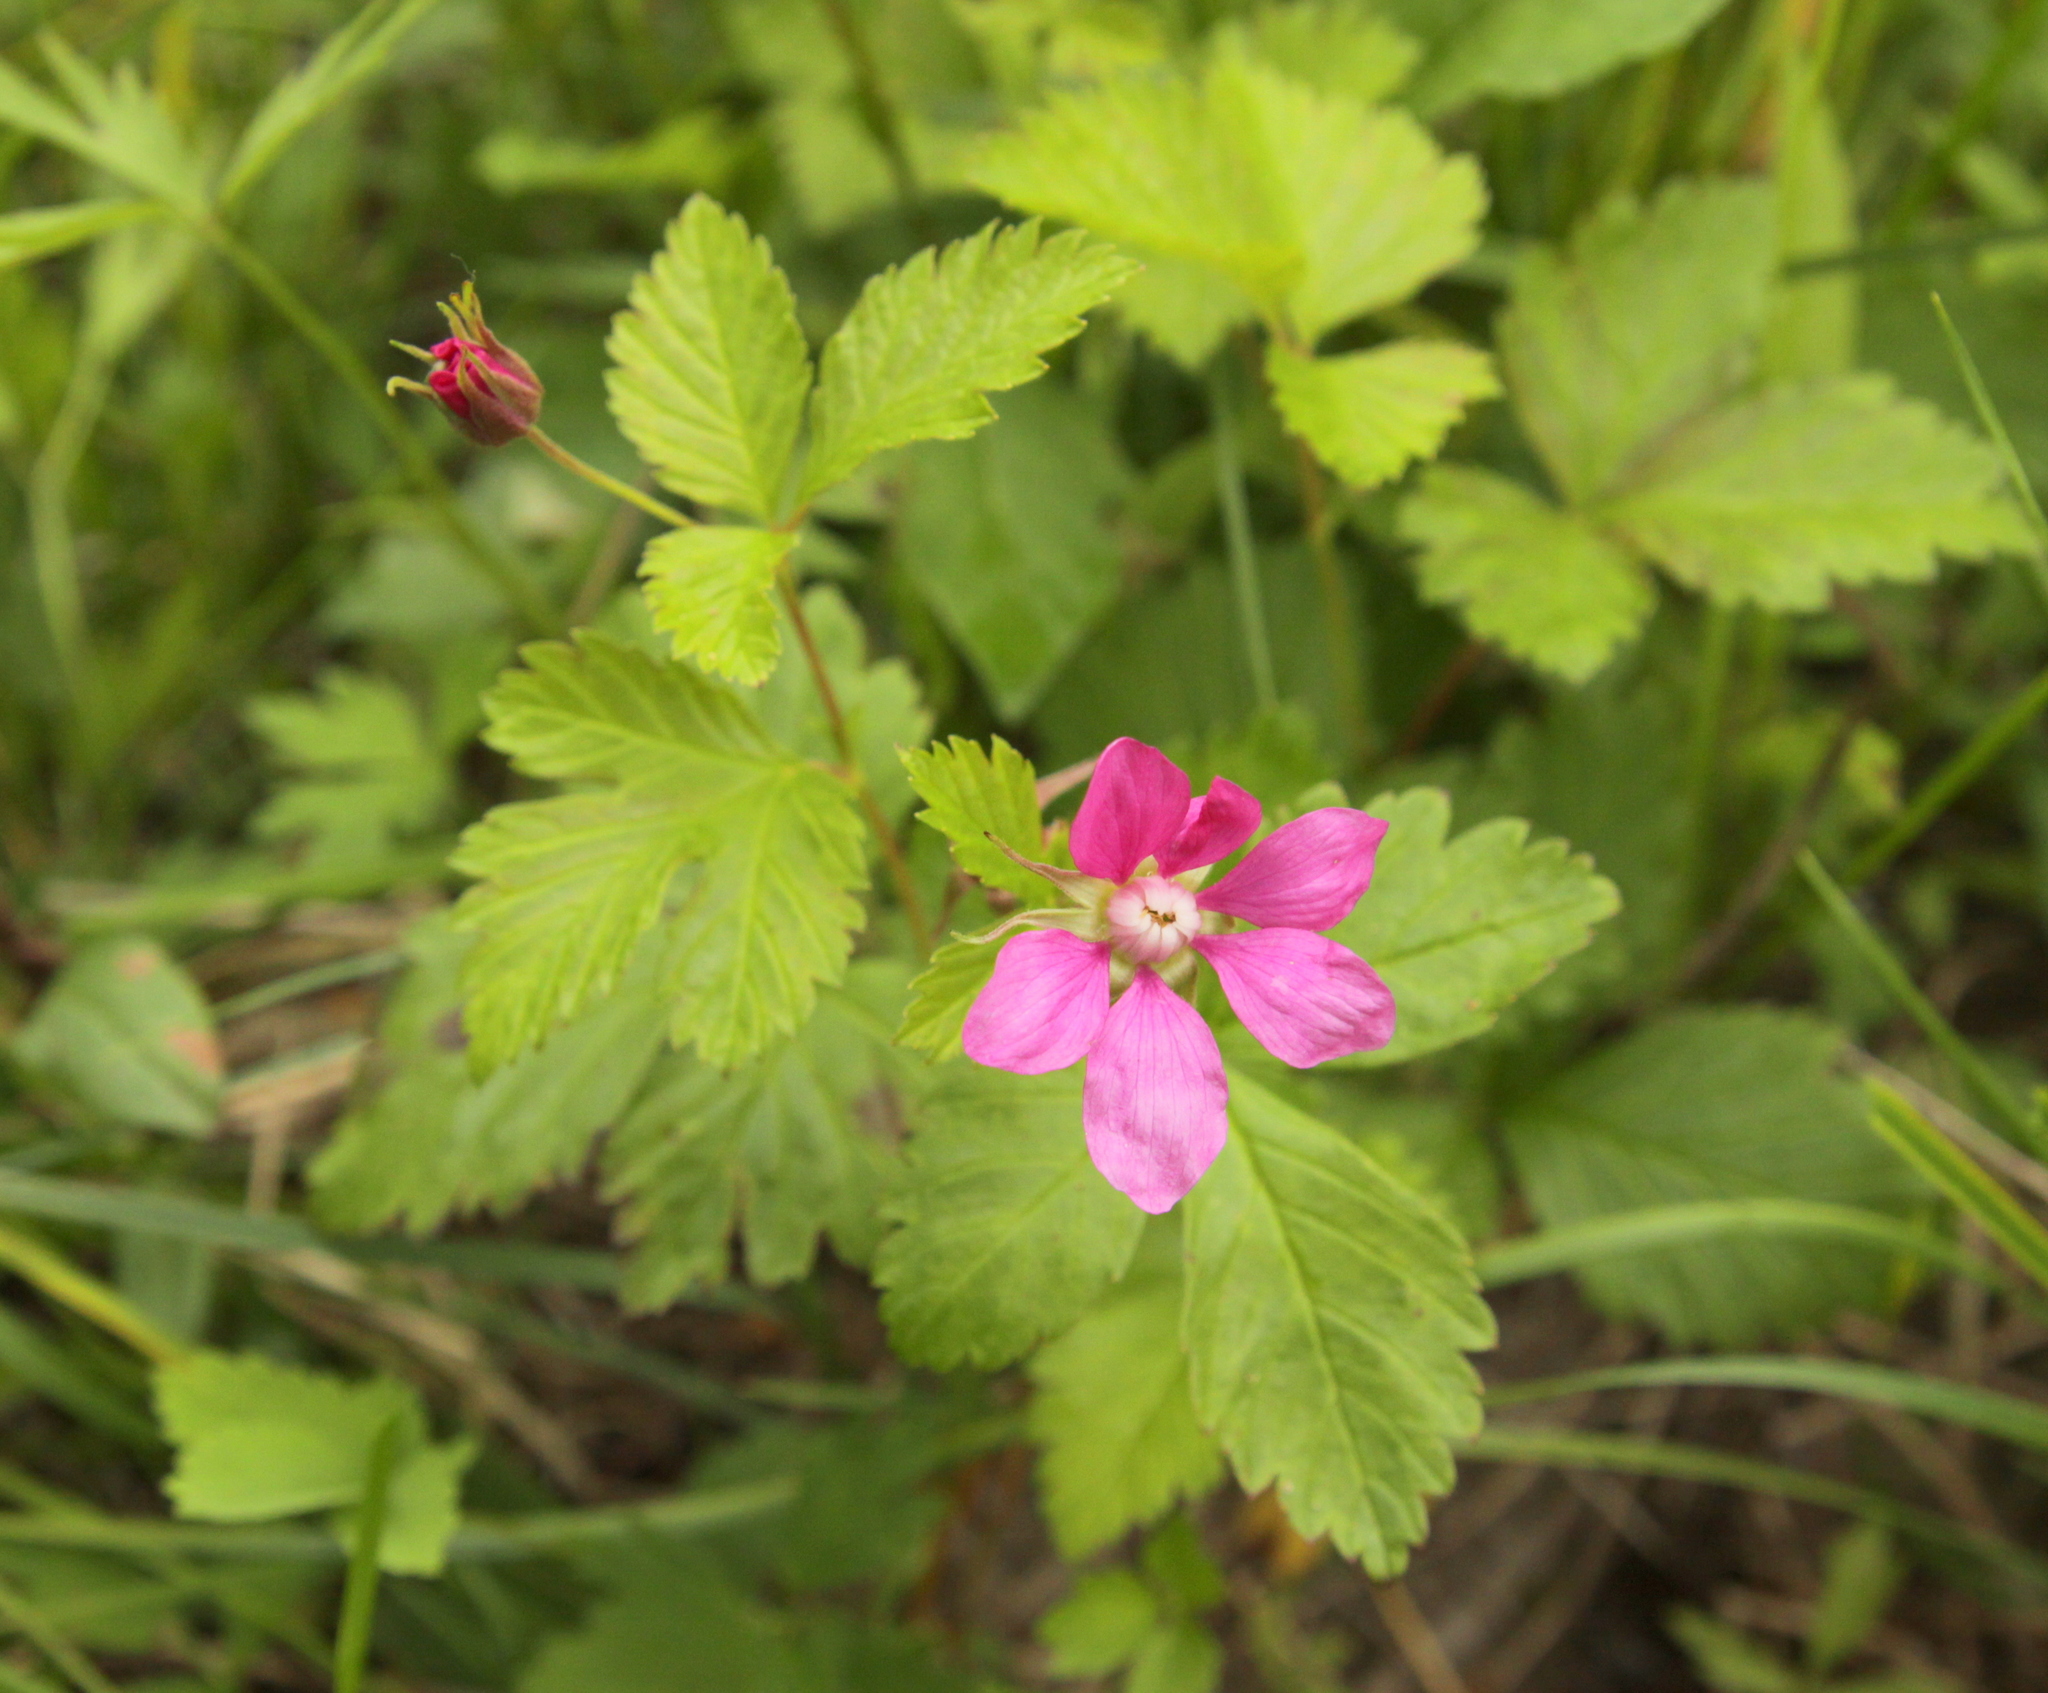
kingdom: Plantae
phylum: Tracheophyta
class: Magnoliopsida
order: Rosales
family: Rosaceae
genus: Rubus
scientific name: Rubus arcticus
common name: Arctic bramble
